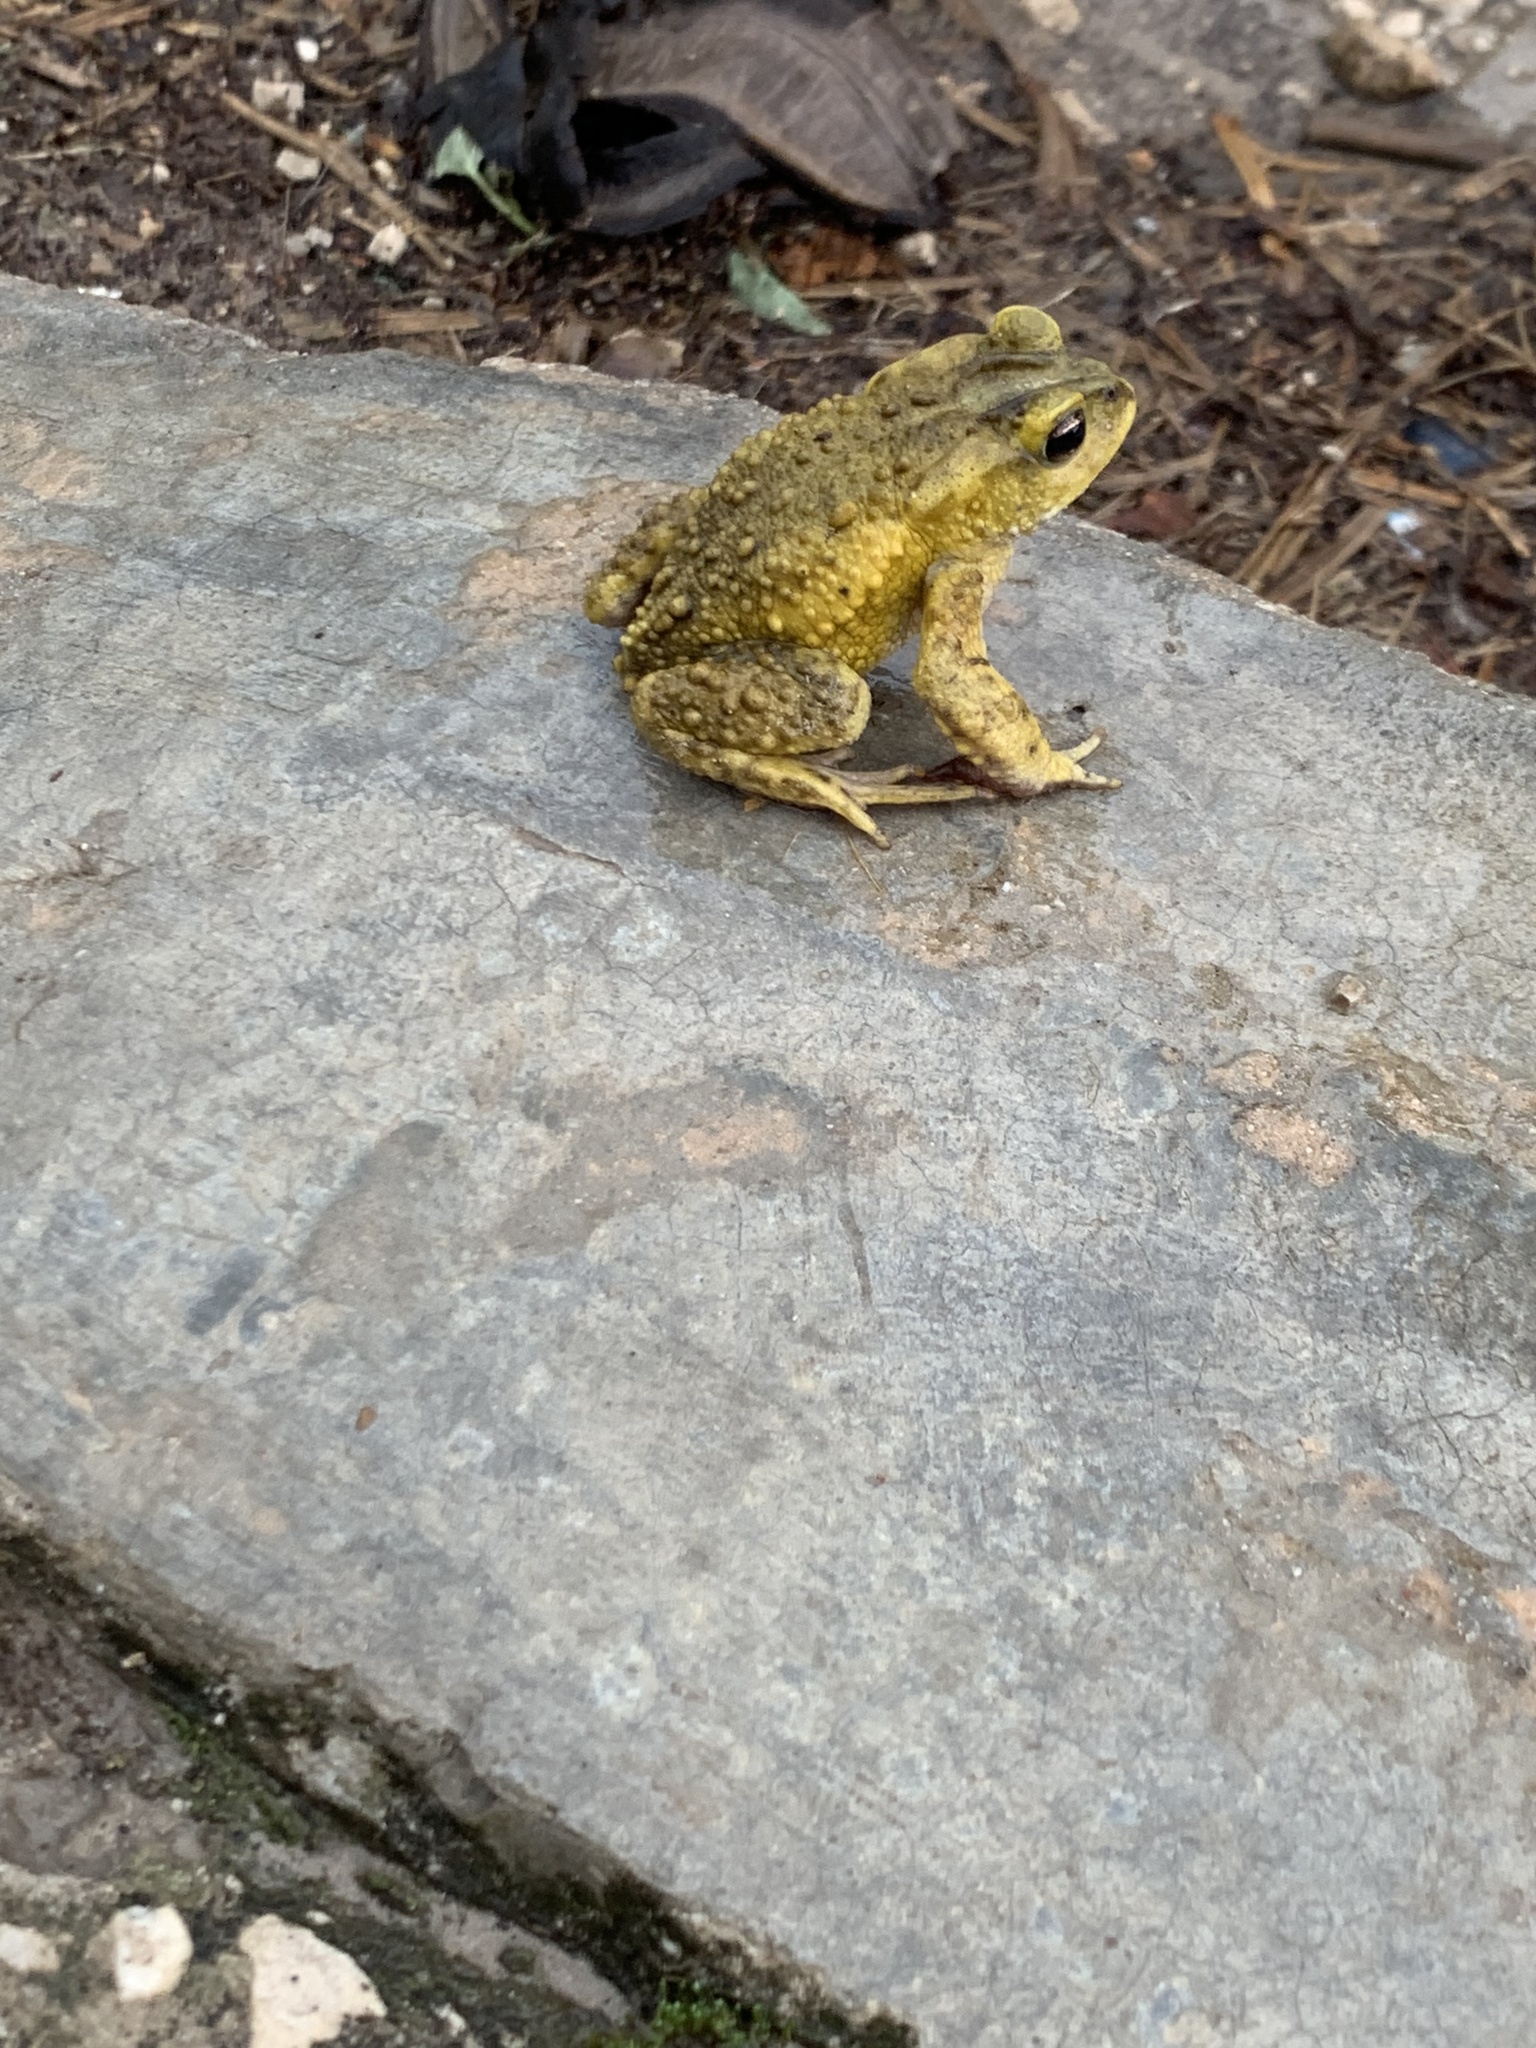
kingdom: Animalia
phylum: Chordata
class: Amphibia
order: Anura
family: Bufonidae
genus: Incilius
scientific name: Incilius bocourti
